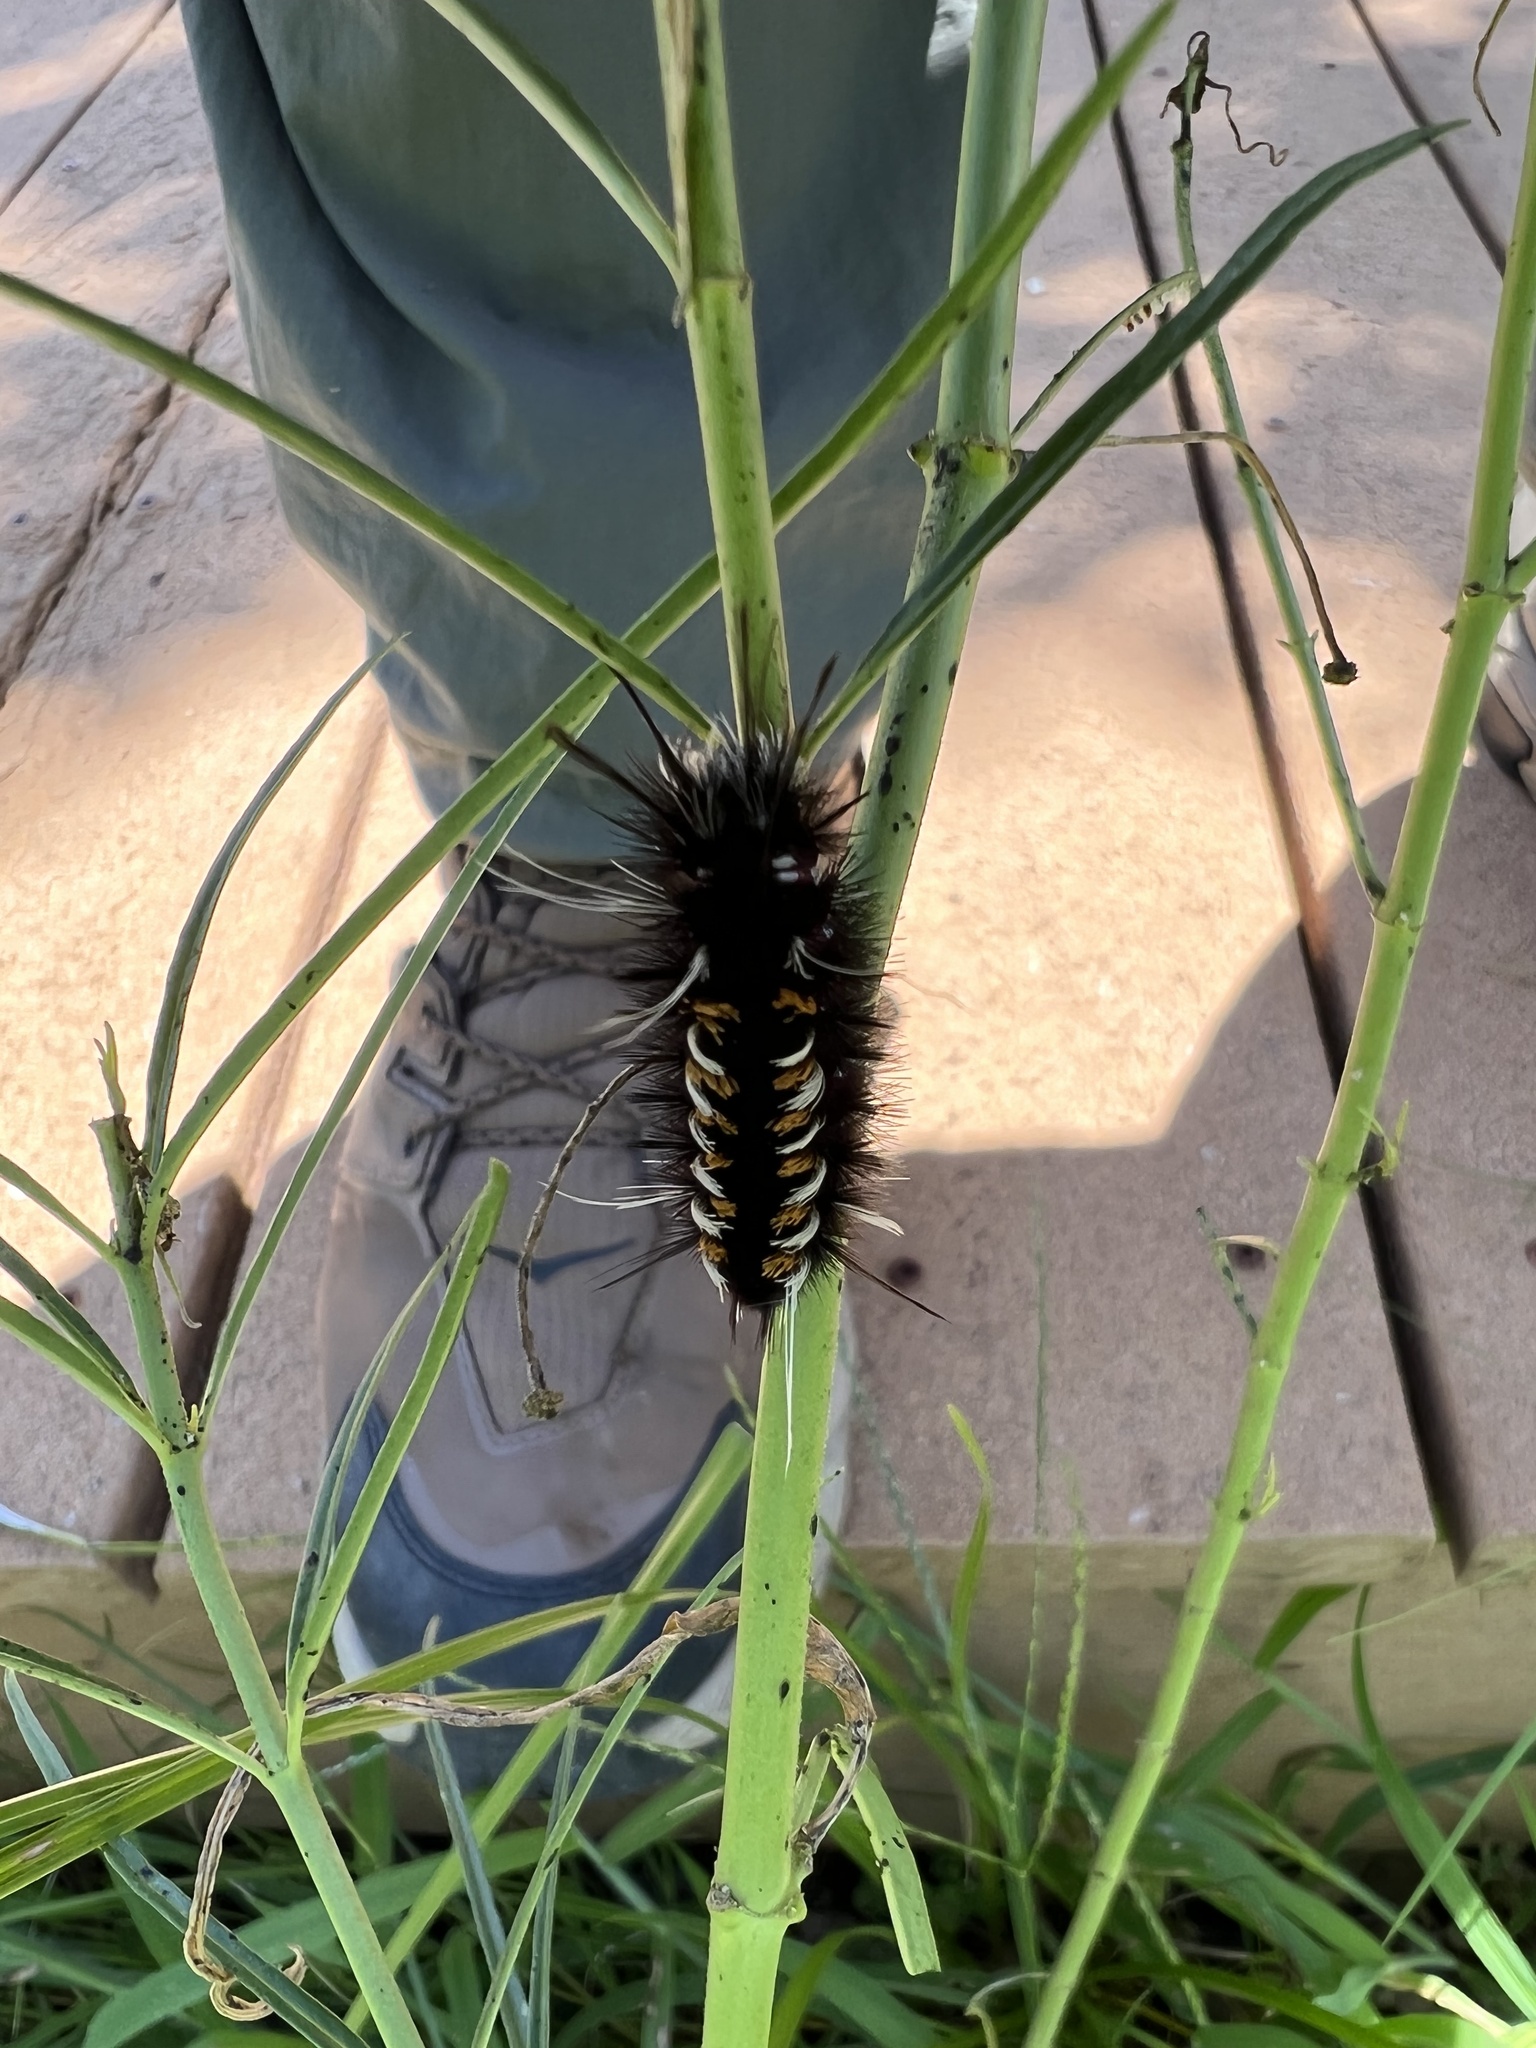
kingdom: Animalia
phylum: Arthropoda
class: Insecta
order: Lepidoptera
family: Erebidae
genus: Euchaetes
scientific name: Euchaetes
